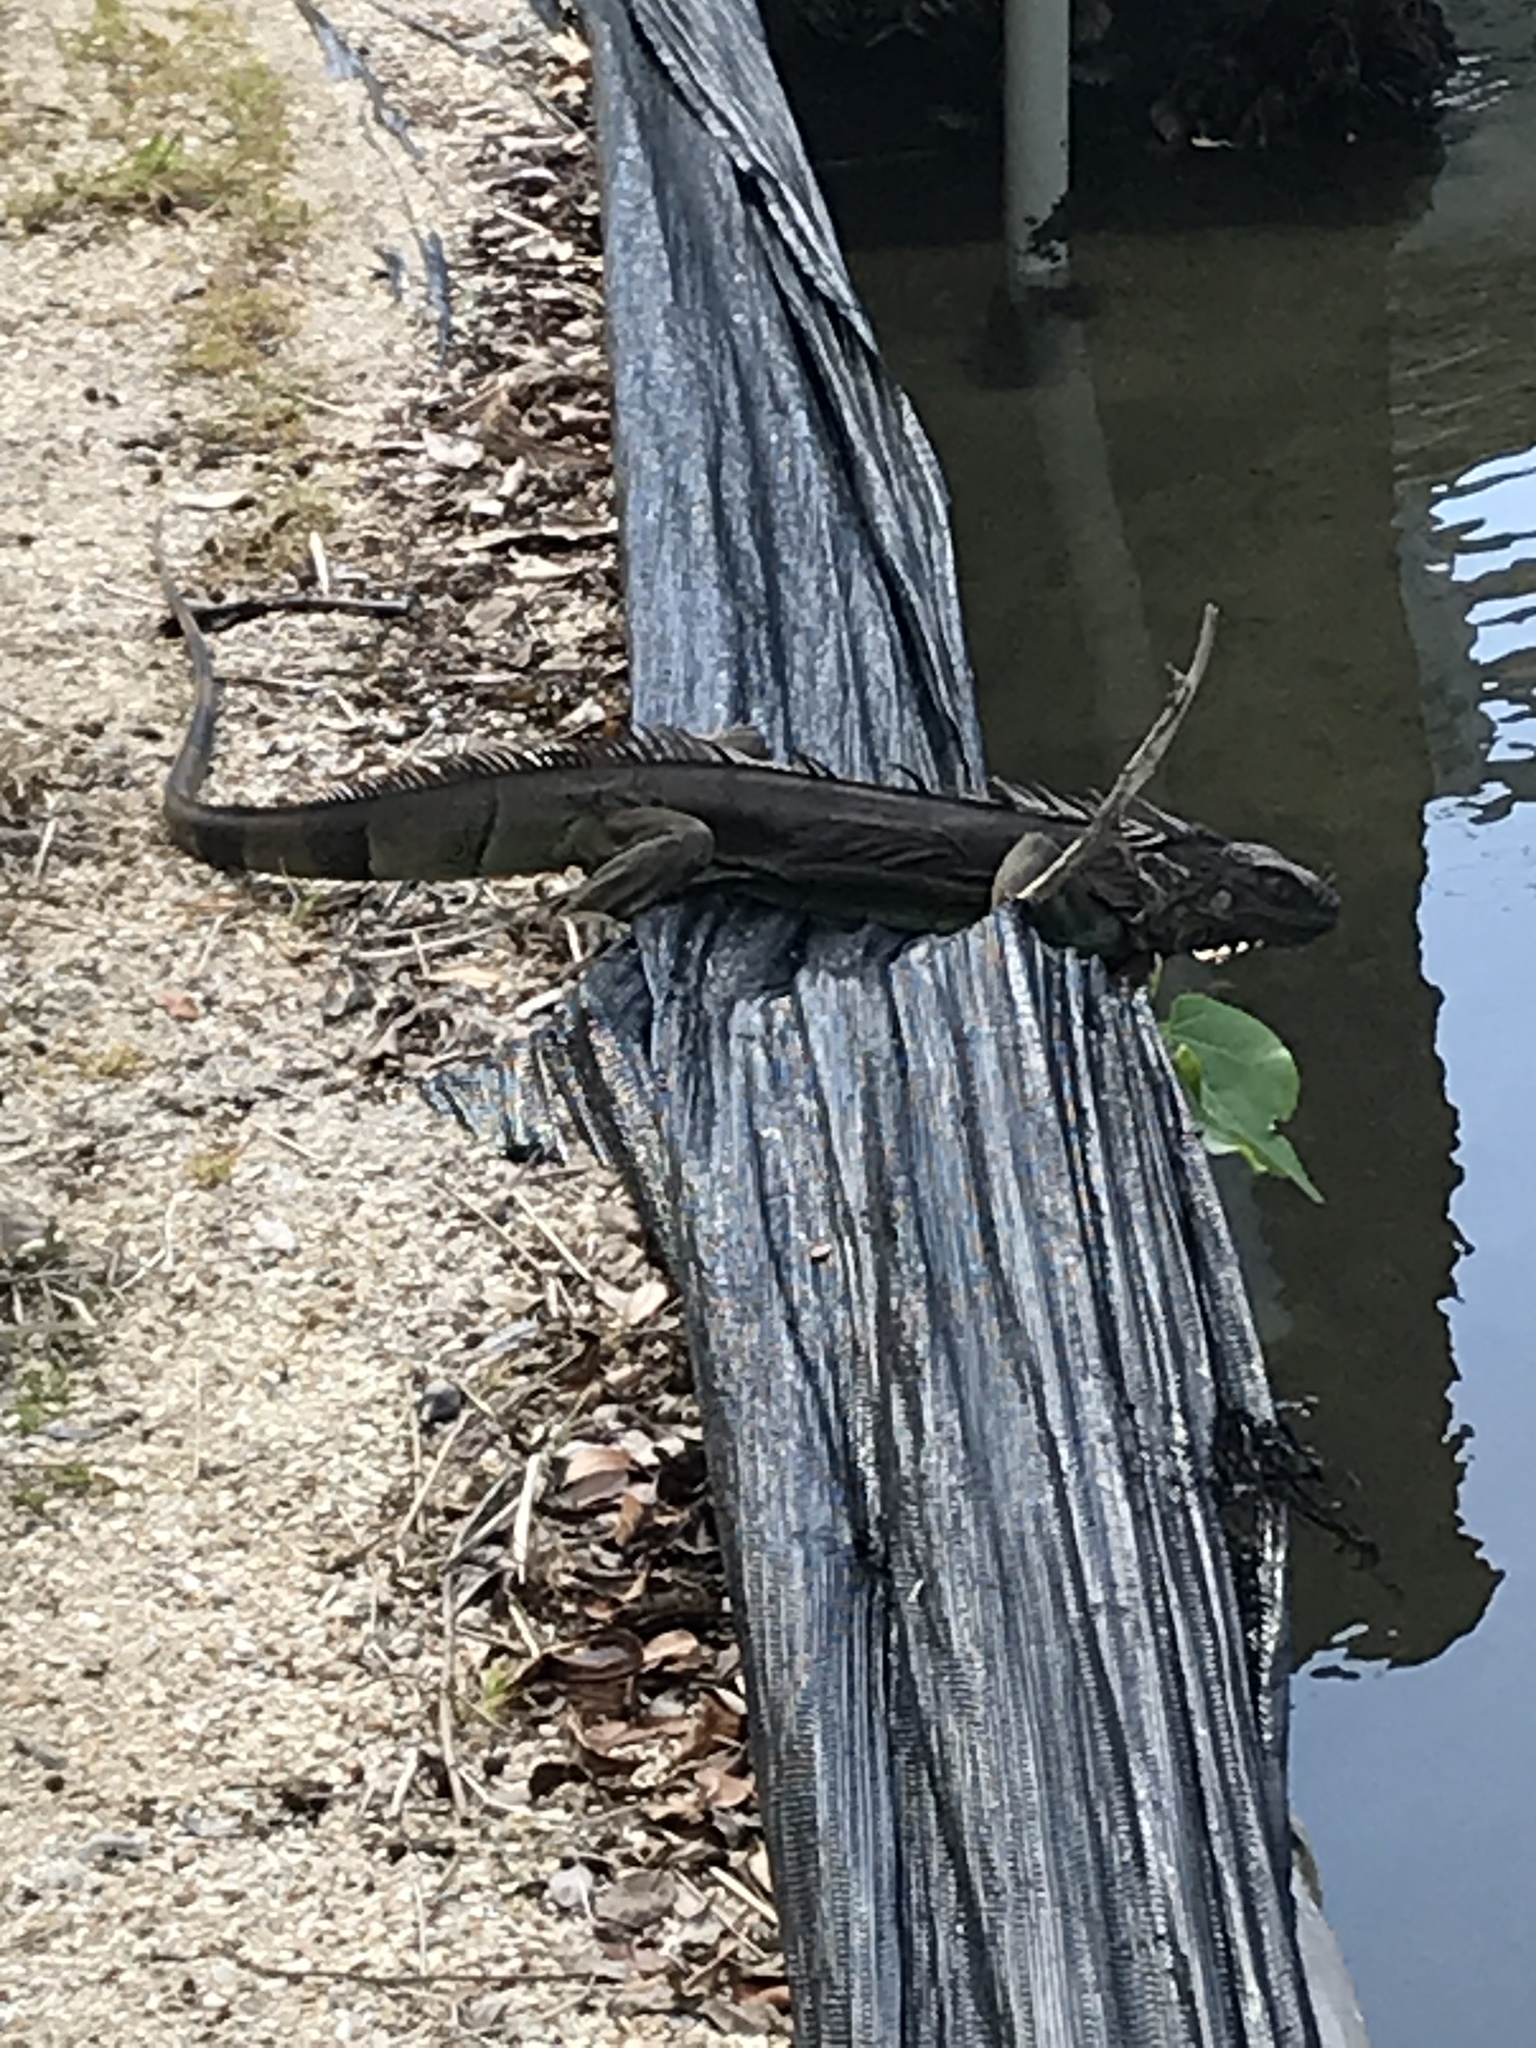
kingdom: Animalia
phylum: Chordata
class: Squamata
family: Iguanidae
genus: Iguana
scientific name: Iguana iguana
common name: Green iguana
